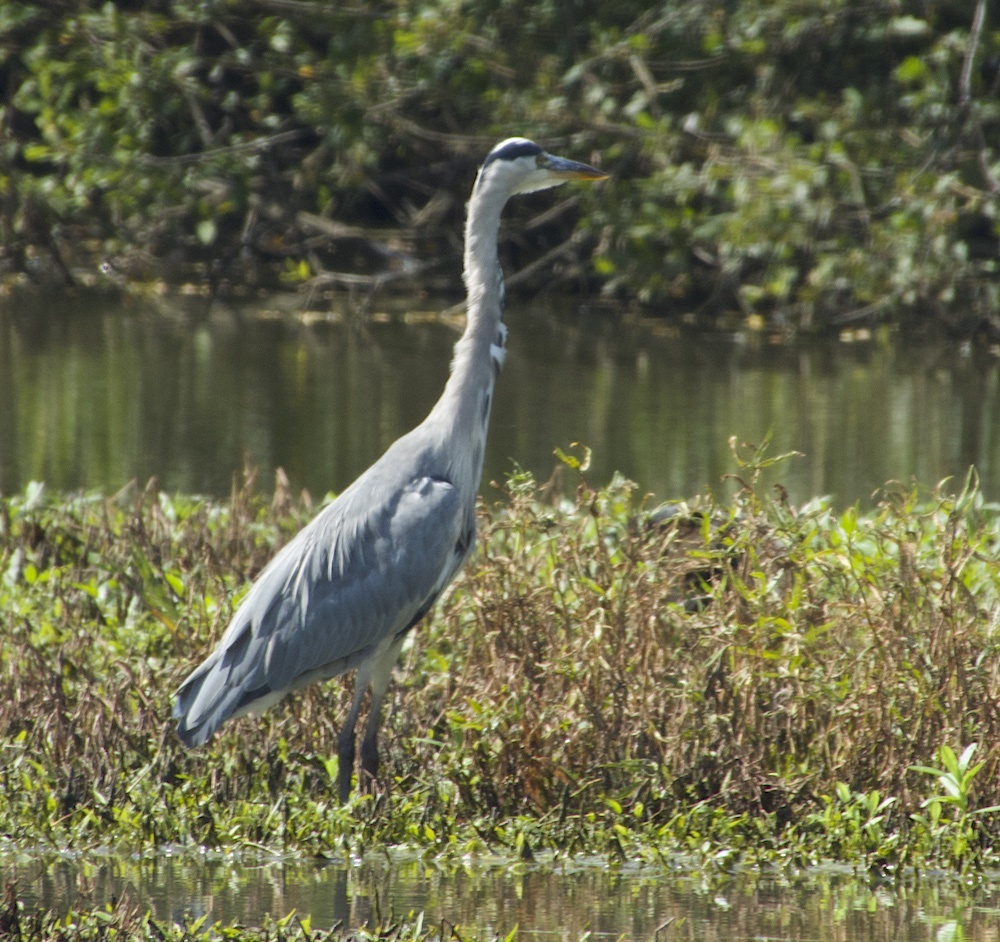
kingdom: Animalia
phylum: Chordata
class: Aves
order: Pelecaniformes
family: Ardeidae
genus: Ardea
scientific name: Ardea cinerea
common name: Grey heron
